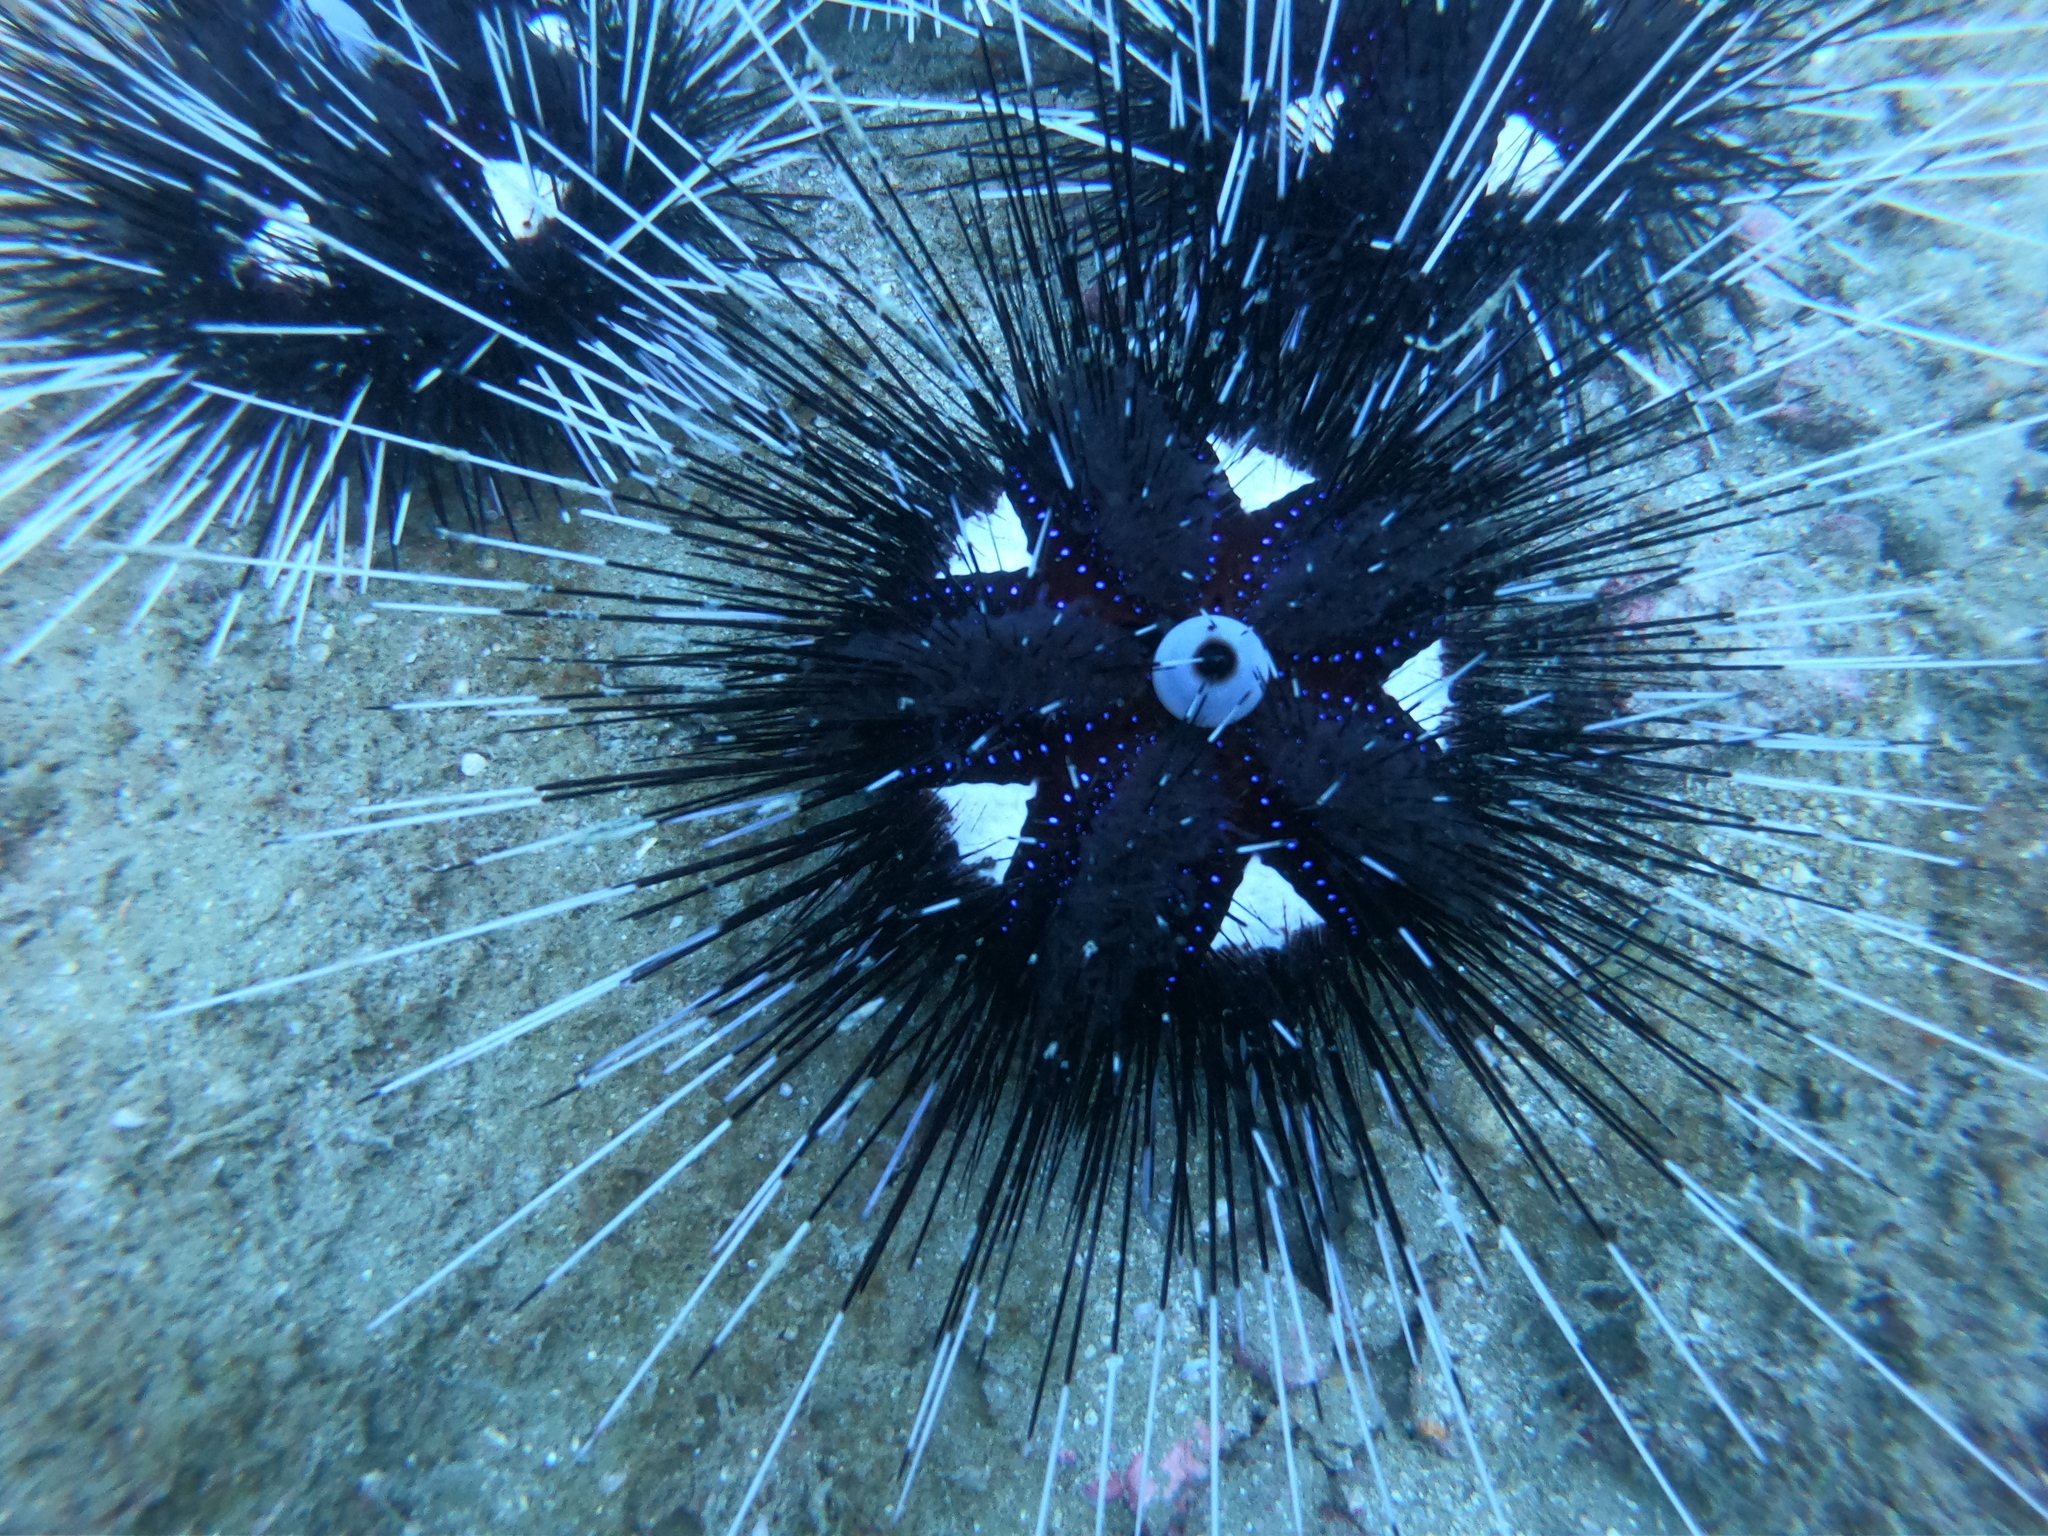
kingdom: Animalia
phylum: Echinodermata
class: Echinoidea
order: Diadematoida
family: Diadematidae
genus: Astropyga
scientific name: Astropyga pulvinata
